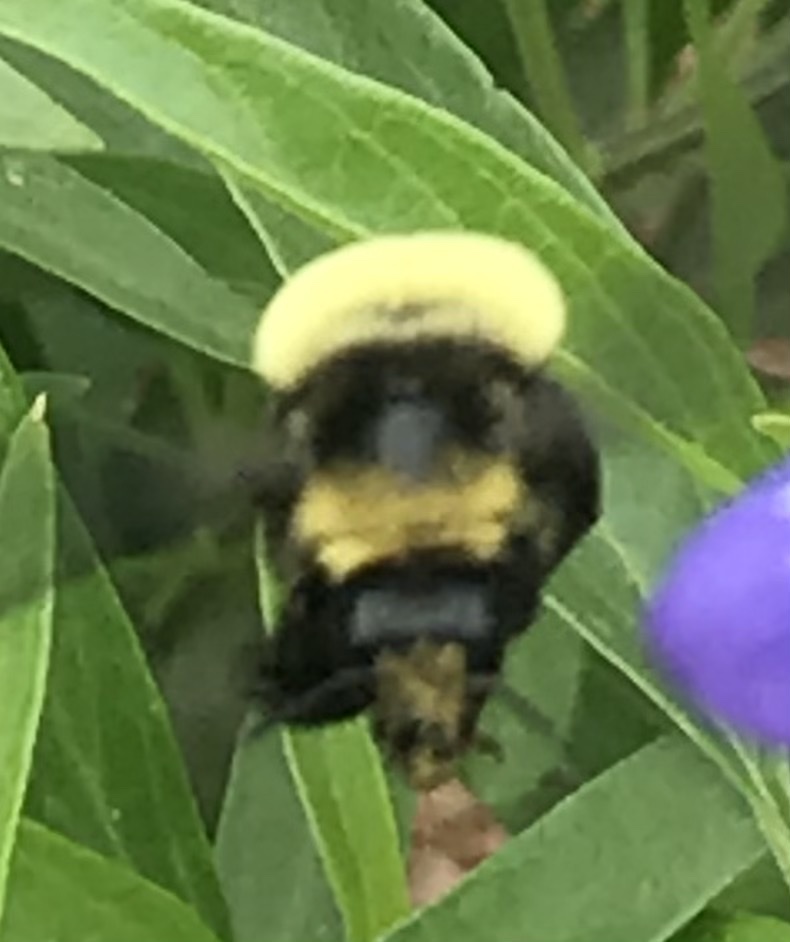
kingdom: Animalia
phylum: Arthropoda
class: Insecta
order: Hymenoptera
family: Apidae
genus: Bombus
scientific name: Bombus pensylvanicus
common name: Bumble bee
